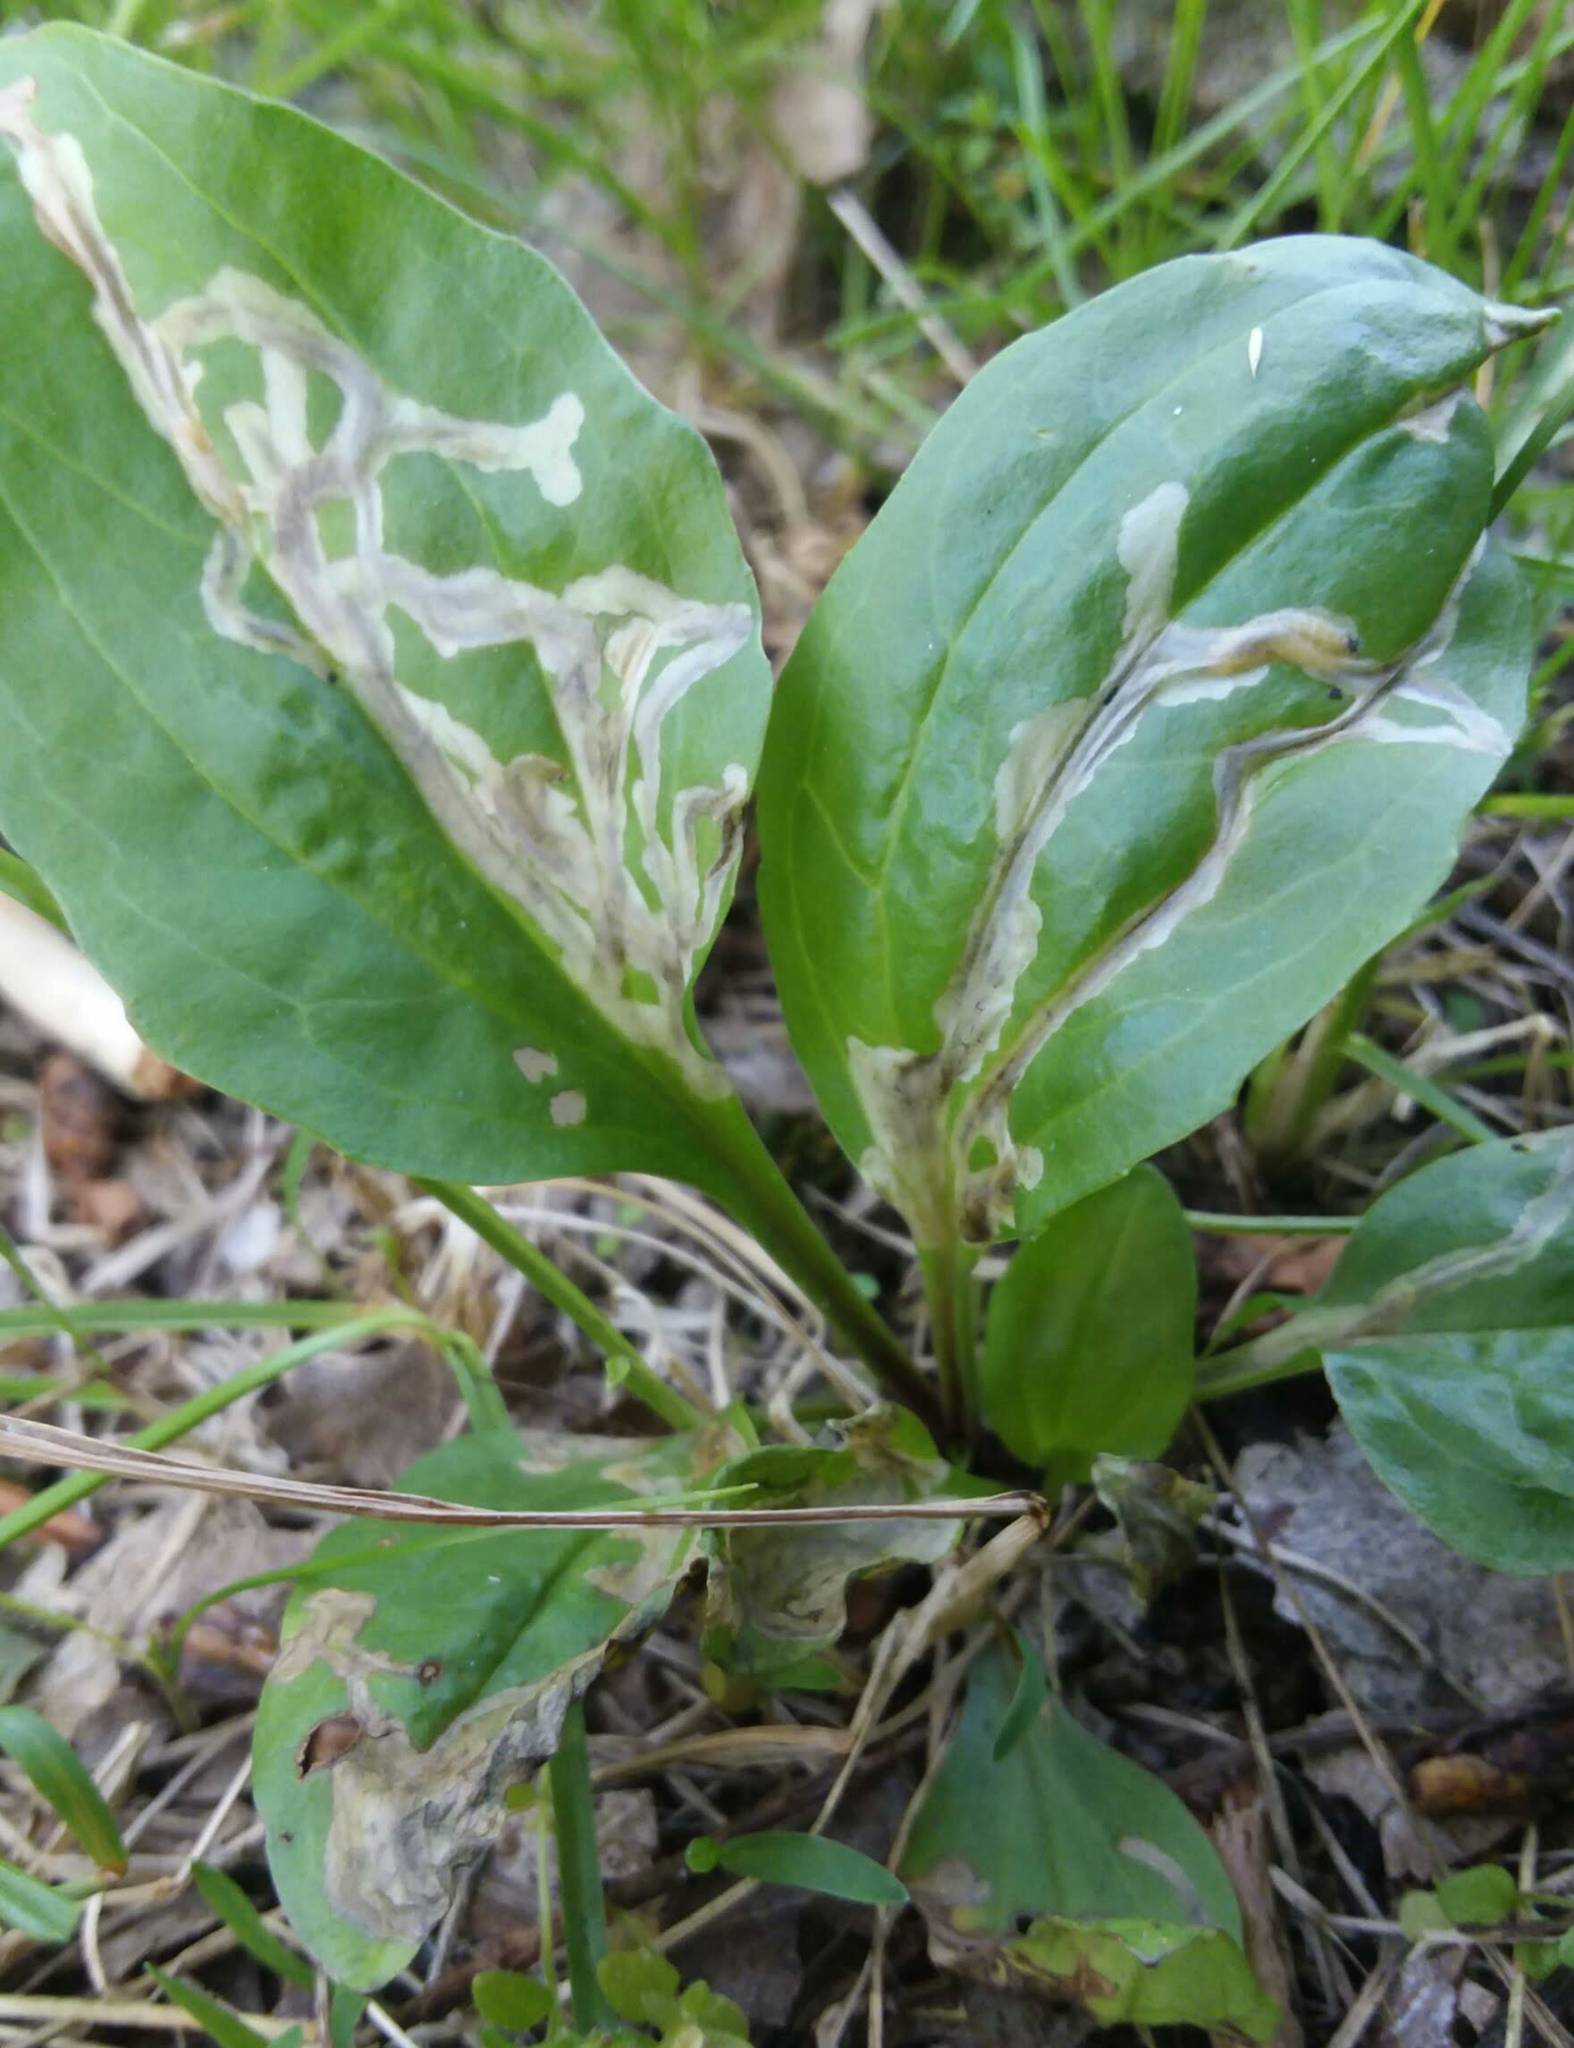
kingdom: Animalia
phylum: Arthropoda
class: Insecta
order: Coleoptera
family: Chrysomelidae
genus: Dibolia
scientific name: Dibolia borealis
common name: Northern plantain flea beetle
